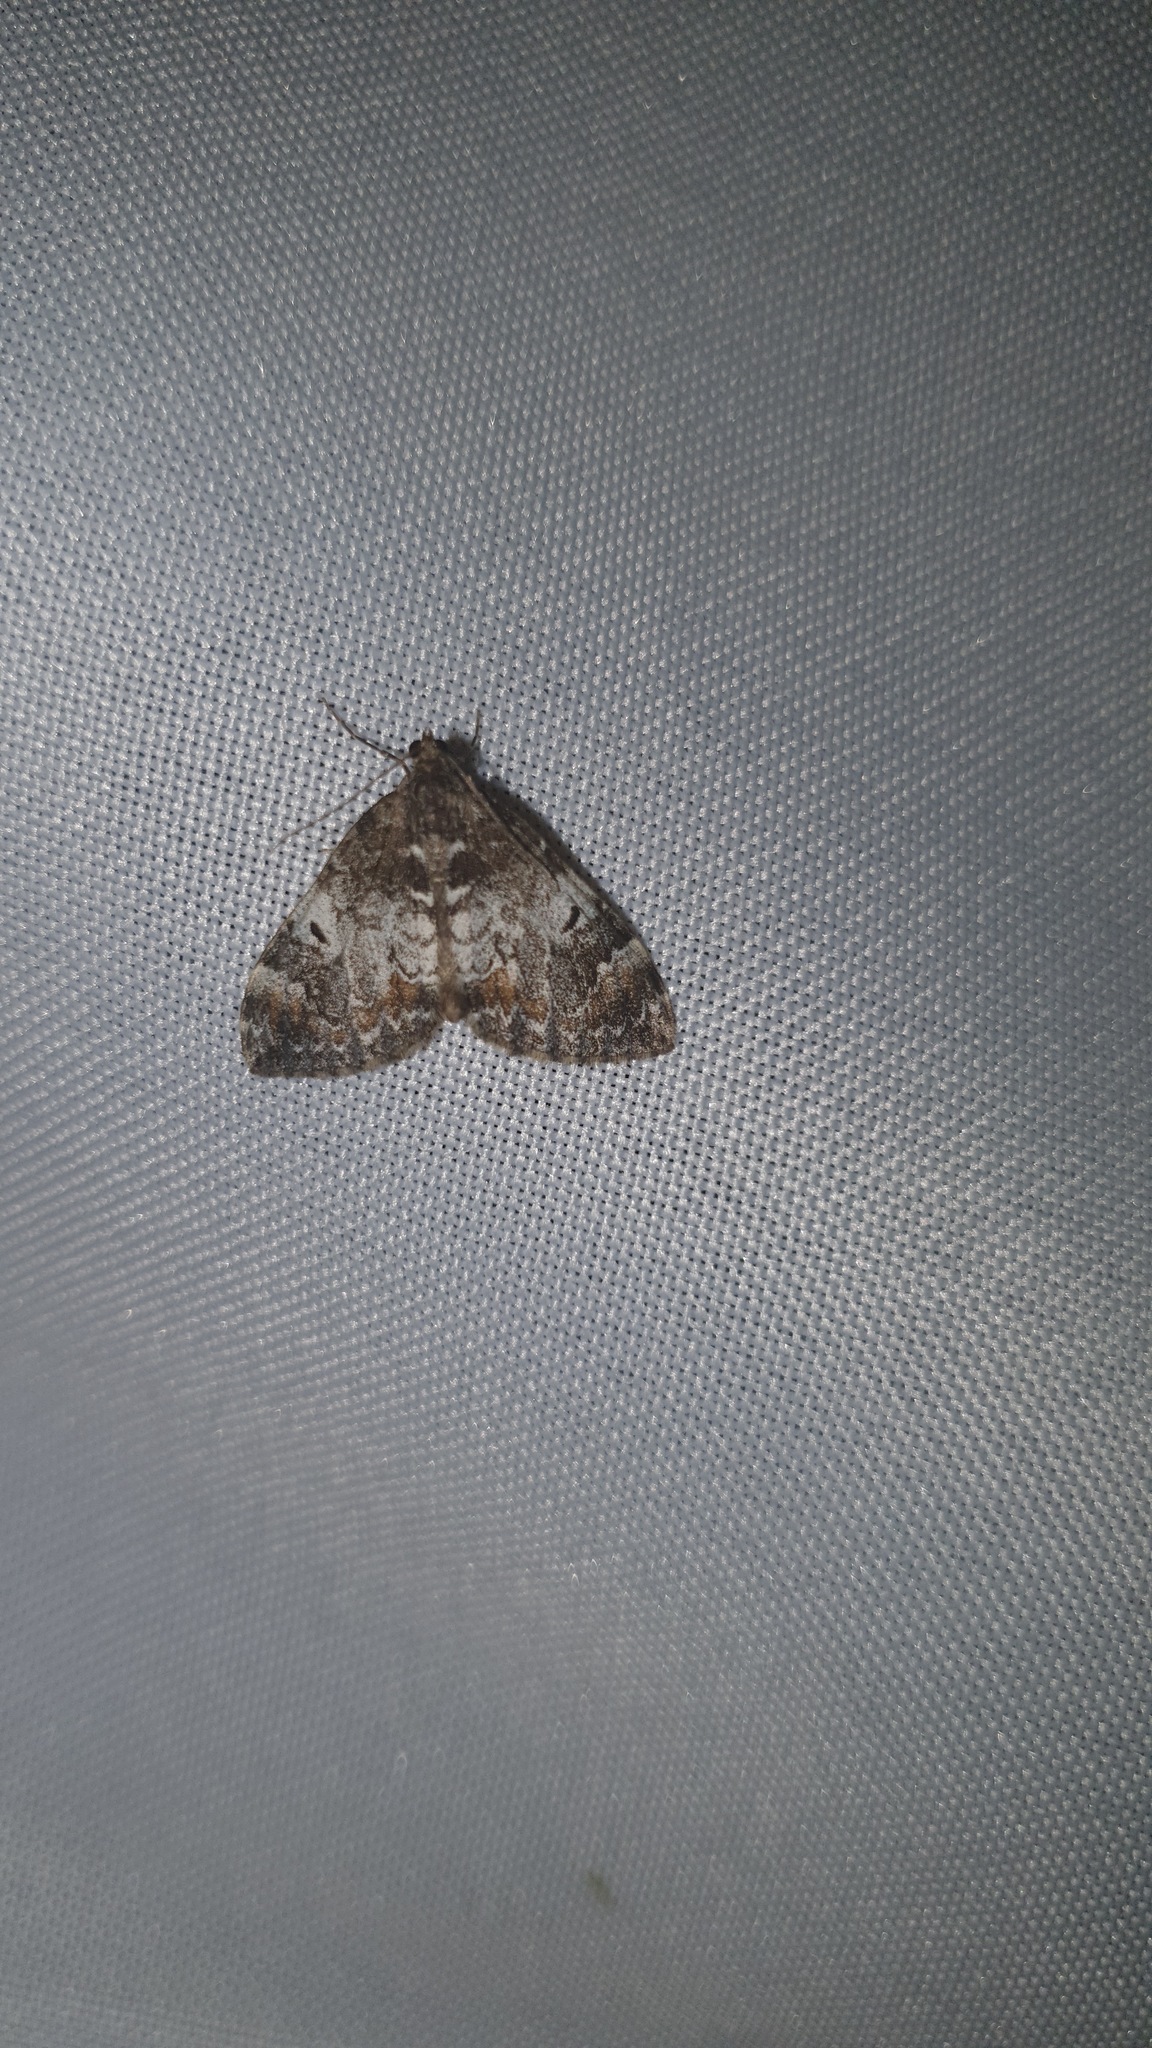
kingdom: Animalia
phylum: Arthropoda
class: Insecta
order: Lepidoptera
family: Geometridae
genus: Dysstroma
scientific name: Dysstroma truncata
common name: Common marbled carpet
